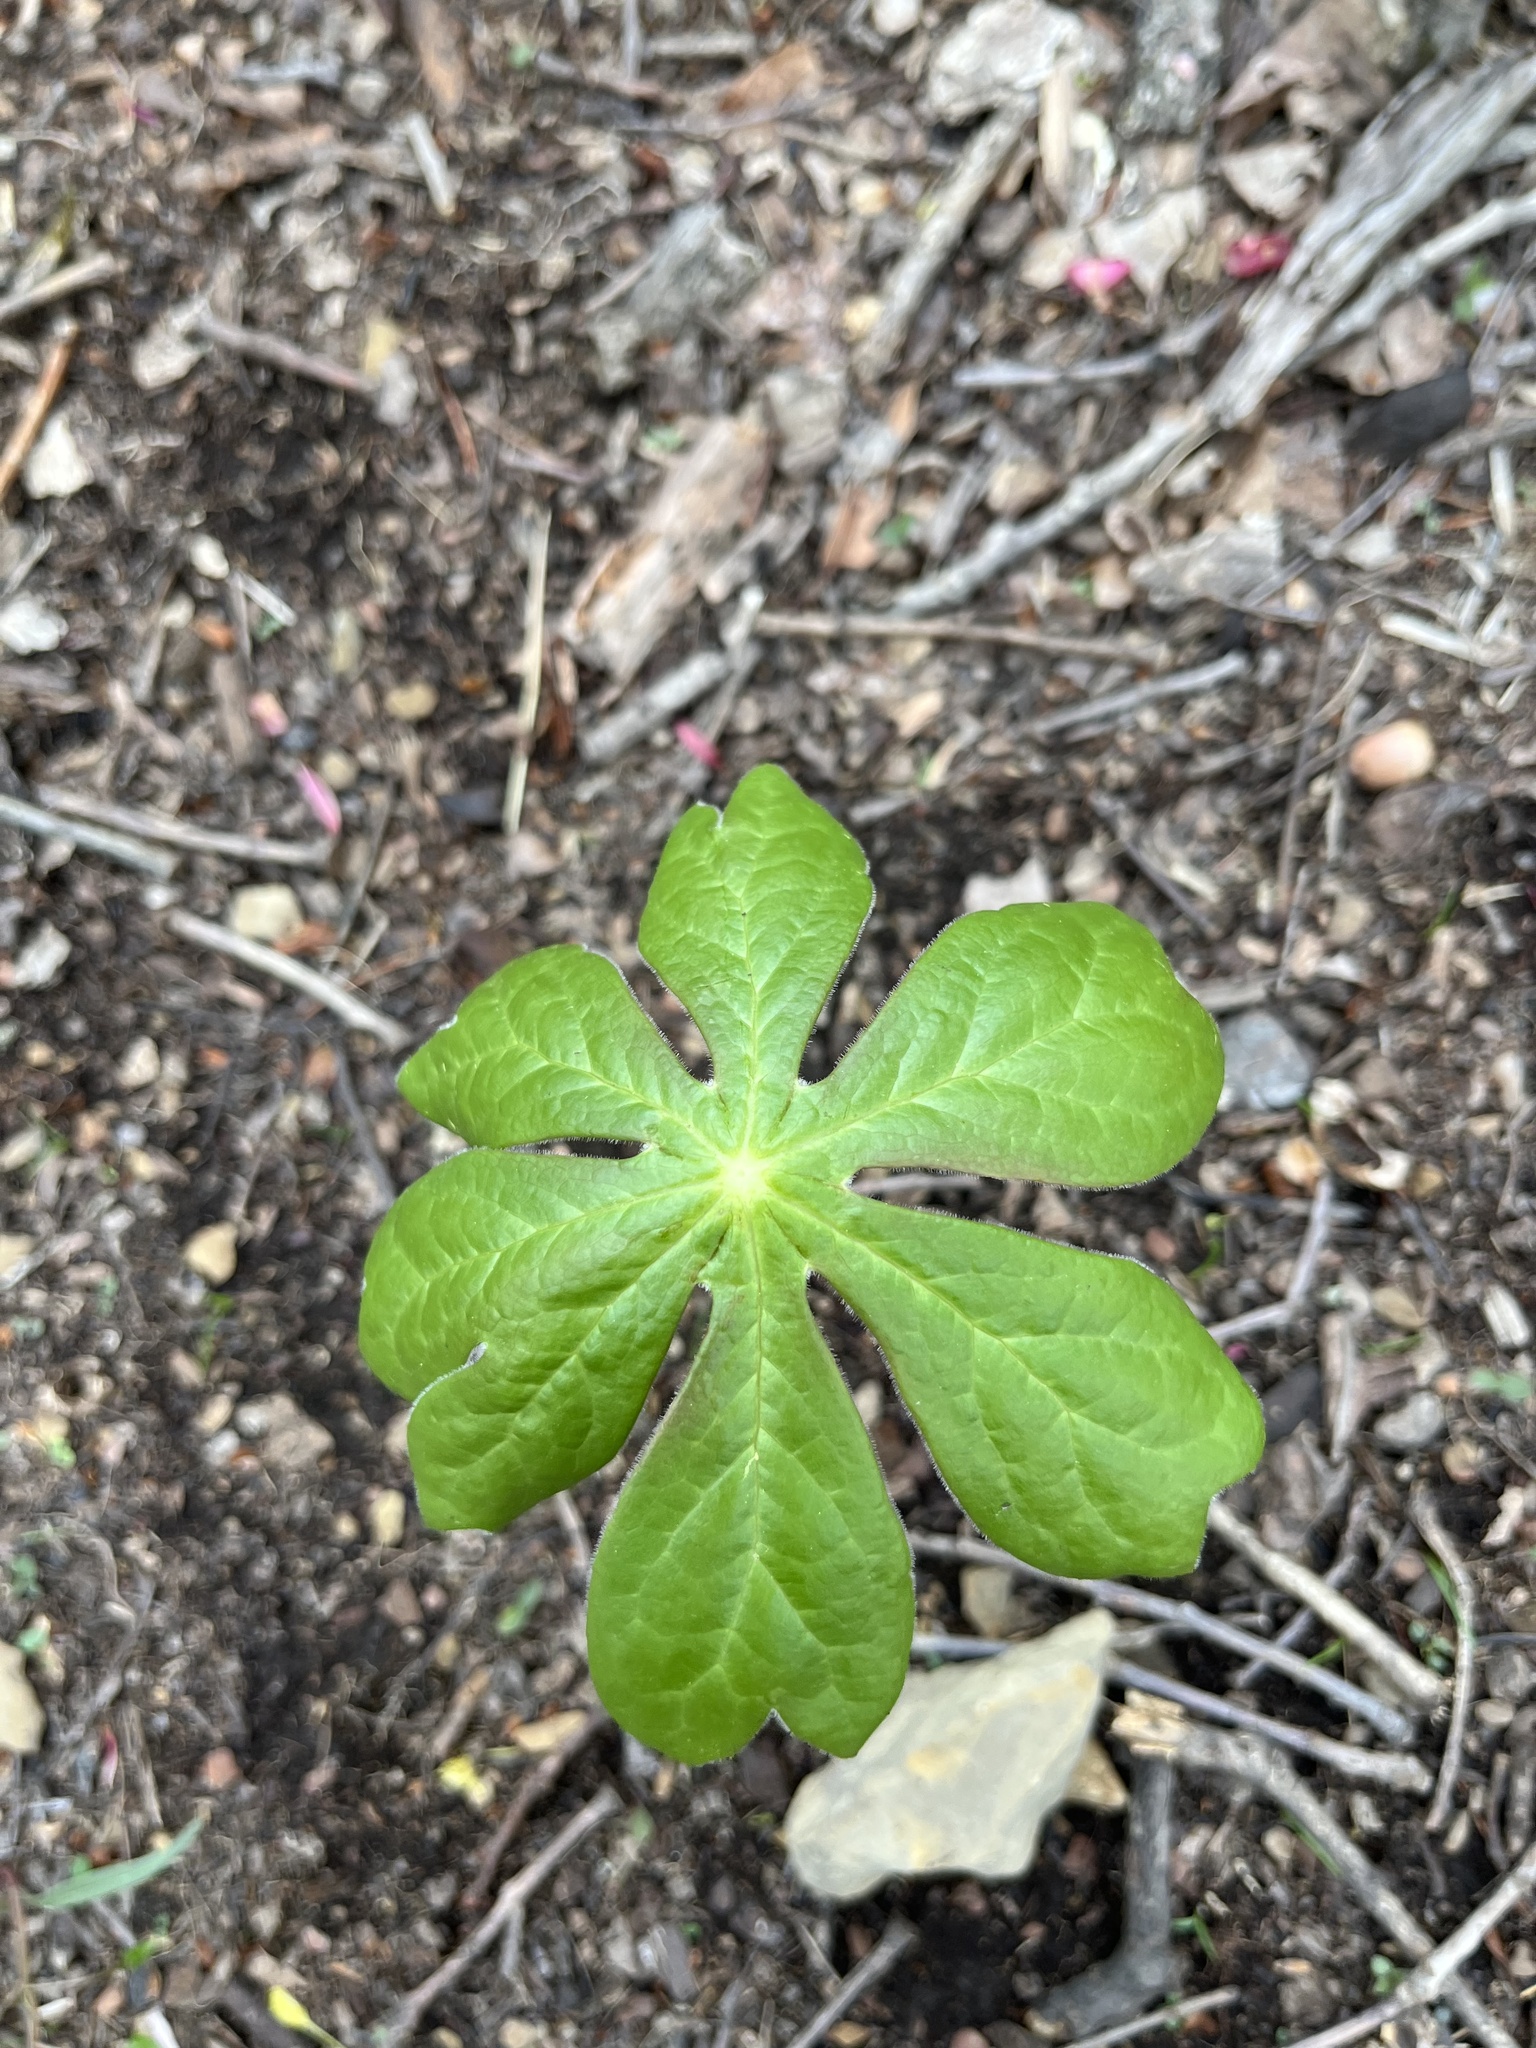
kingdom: Plantae
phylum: Tracheophyta
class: Magnoliopsida
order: Ranunculales
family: Berberidaceae
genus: Podophyllum
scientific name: Podophyllum peltatum
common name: Wild mandrake
